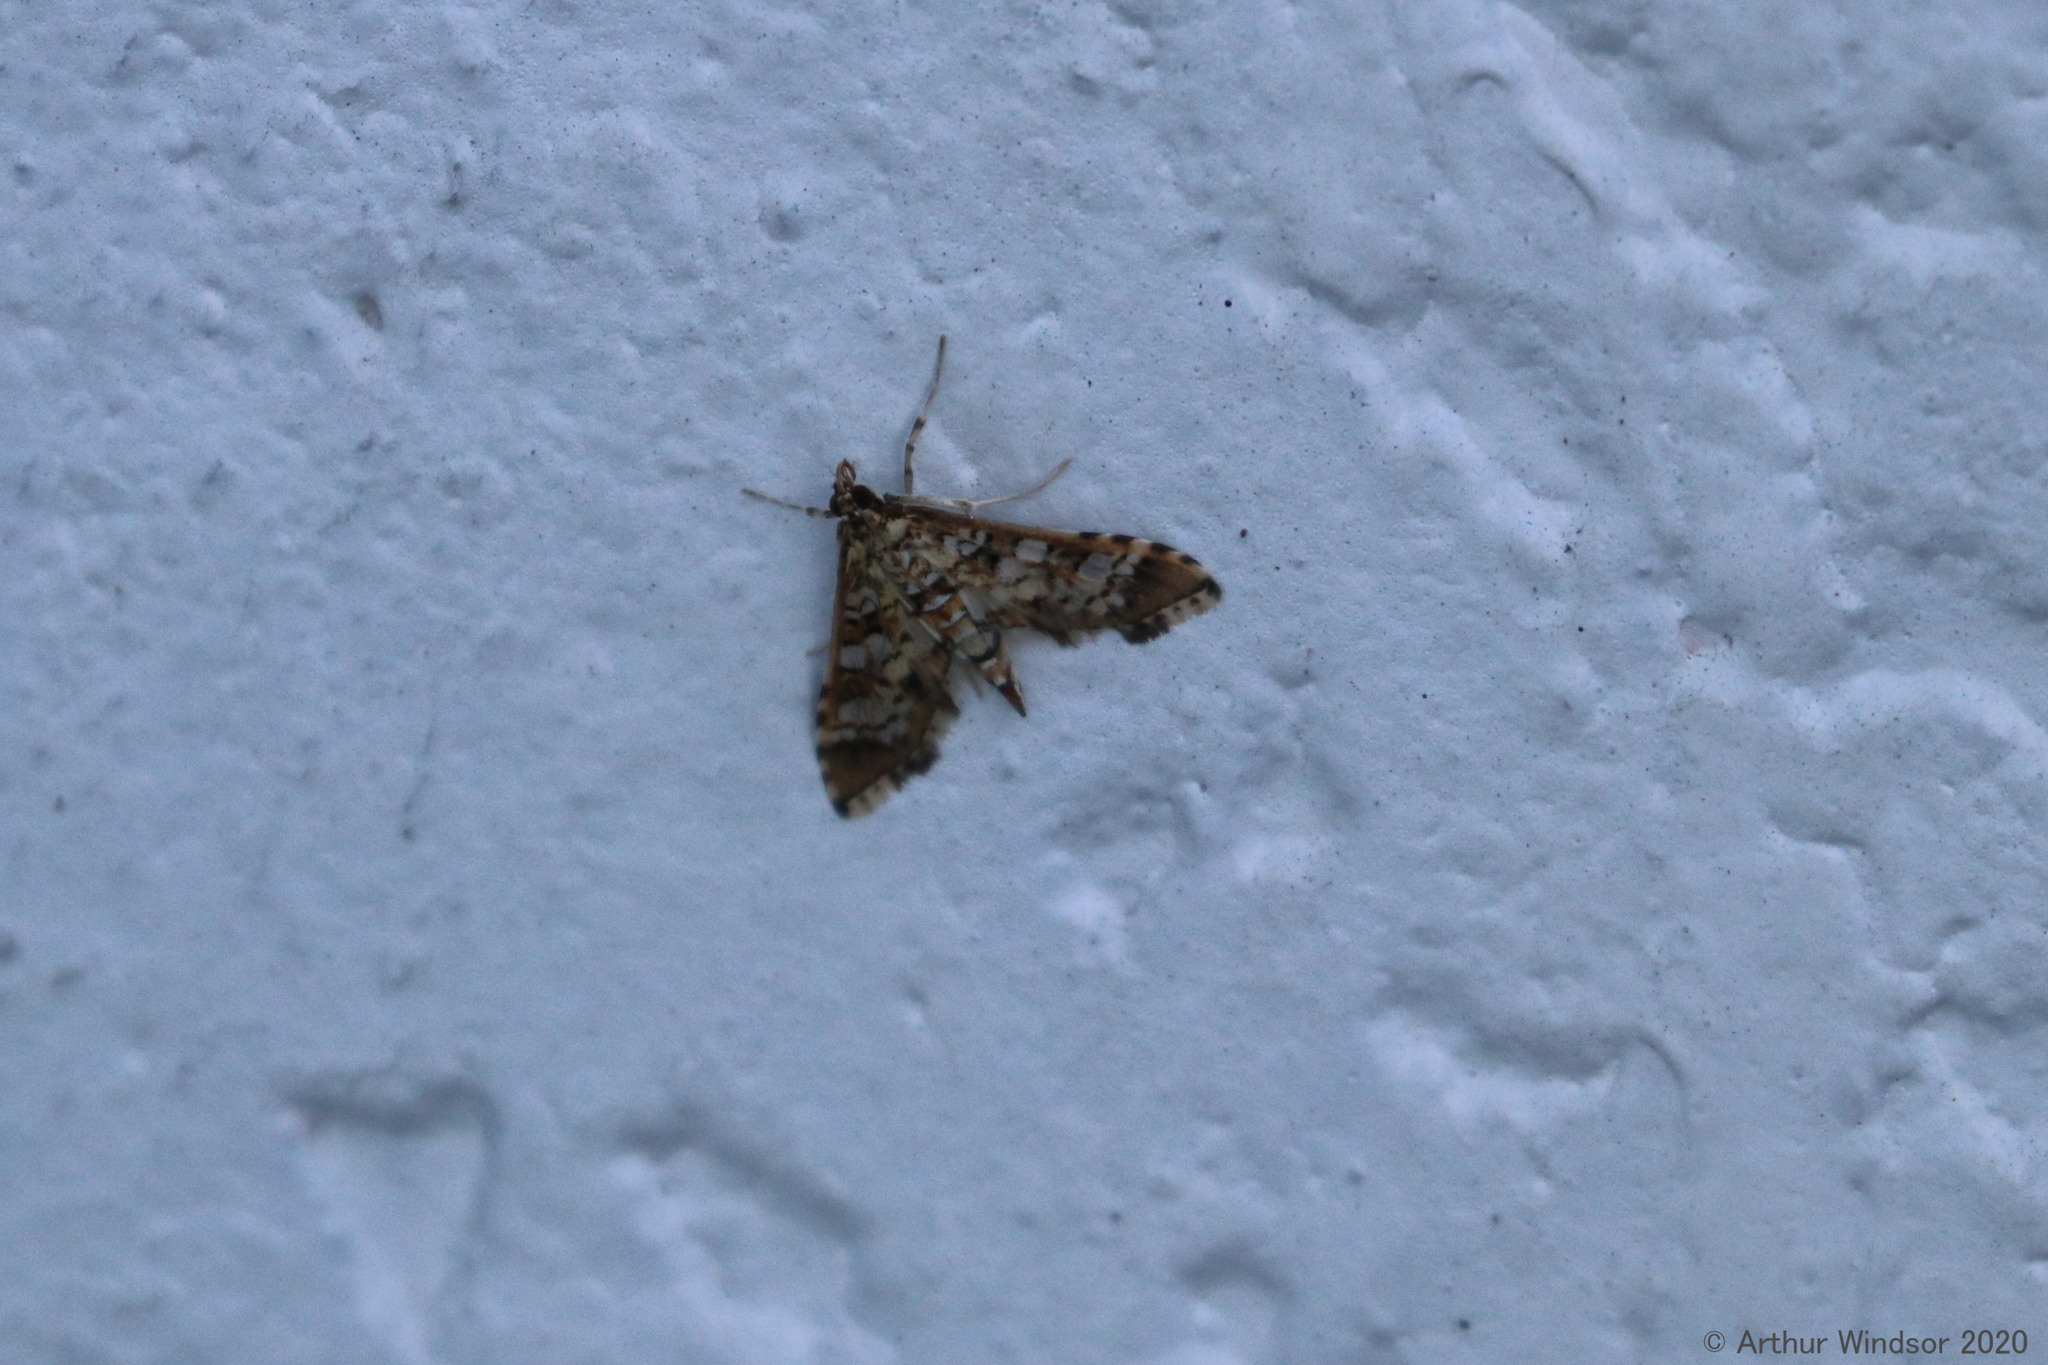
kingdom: Animalia
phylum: Arthropoda
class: Insecta
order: Lepidoptera
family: Crambidae
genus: Samea
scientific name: Samea ecclesialis
